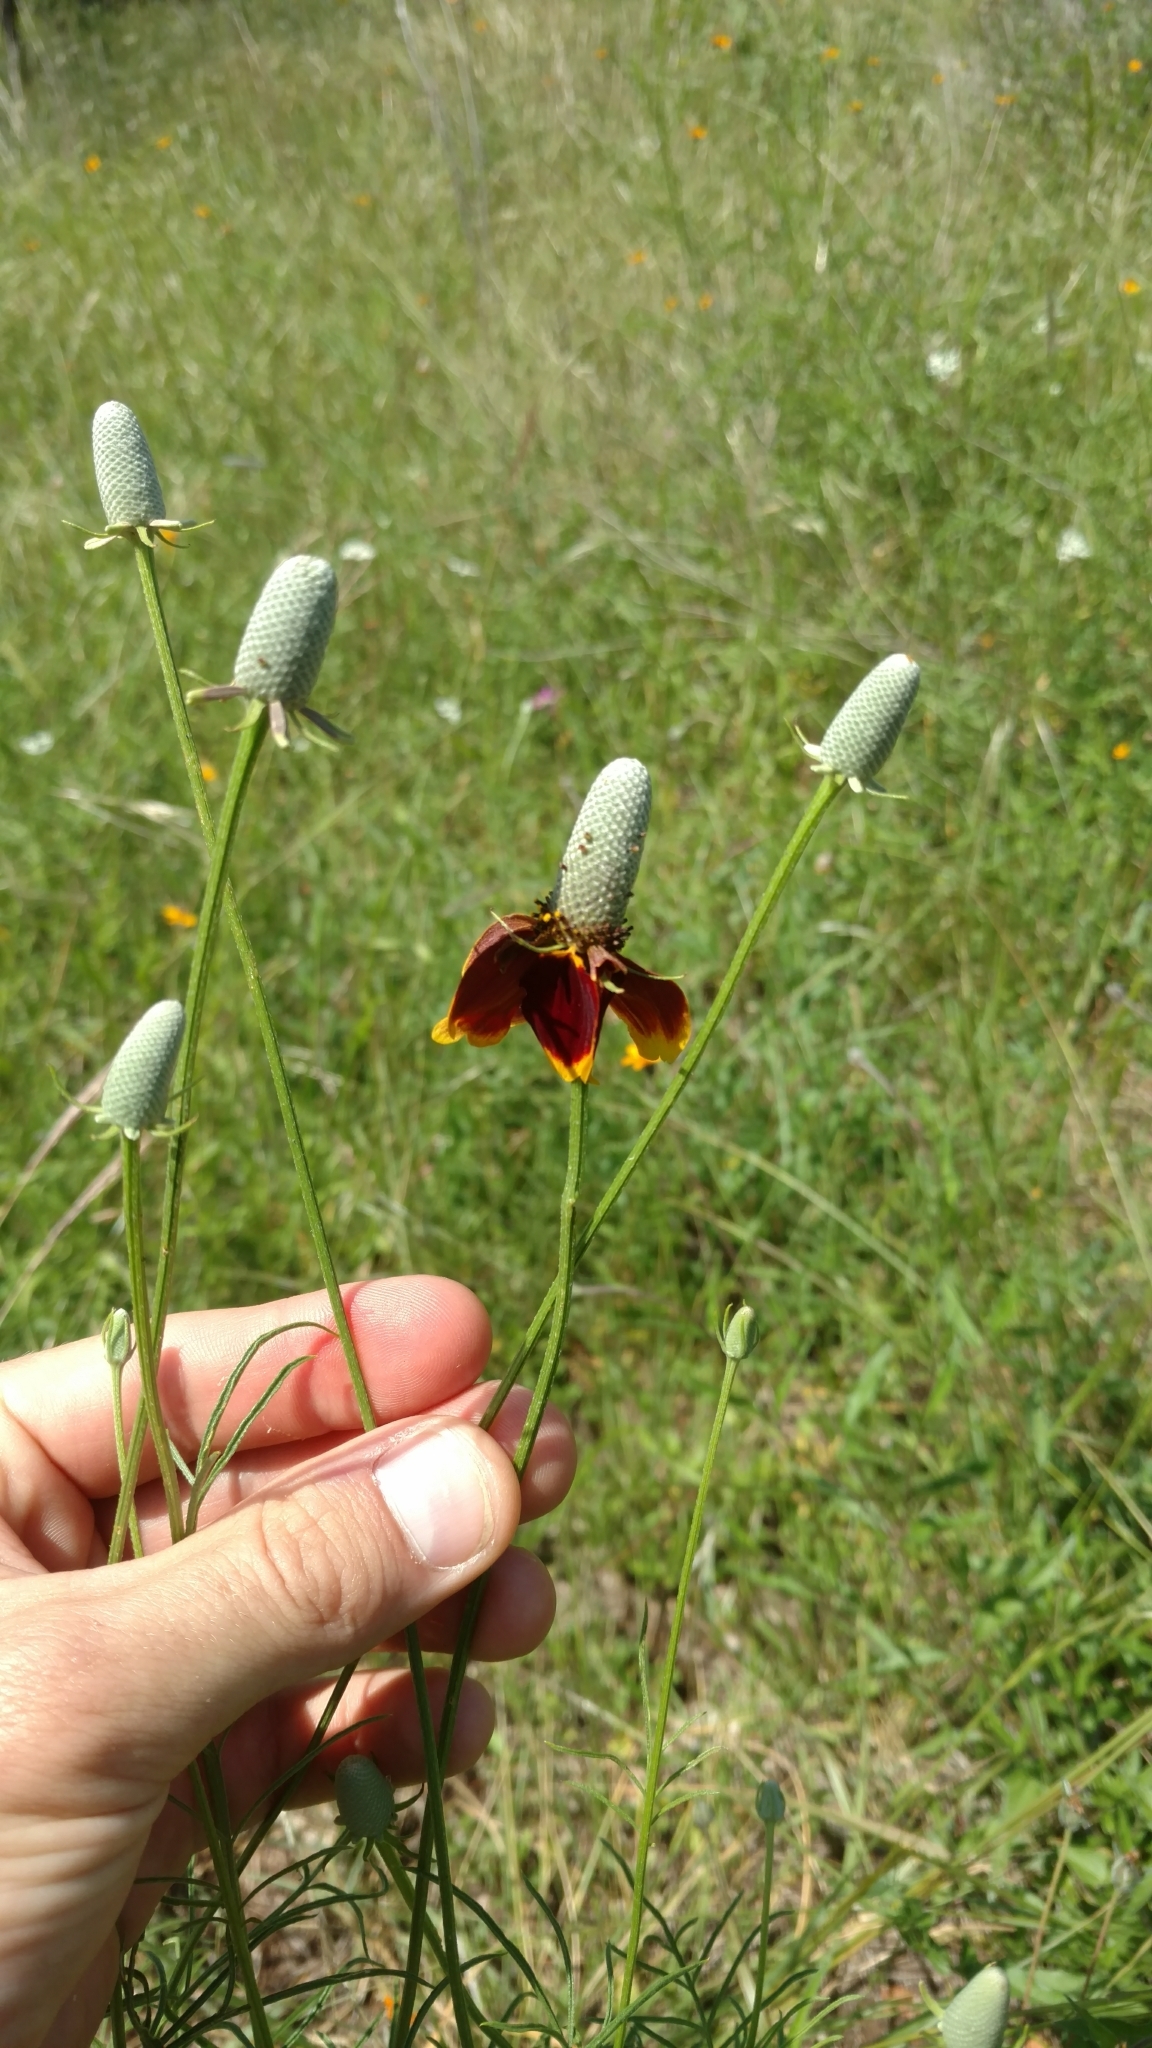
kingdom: Plantae
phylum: Tracheophyta
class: Magnoliopsida
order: Asterales
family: Asteraceae
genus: Ratibida
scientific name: Ratibida columnifera
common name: Prairie coneflower
